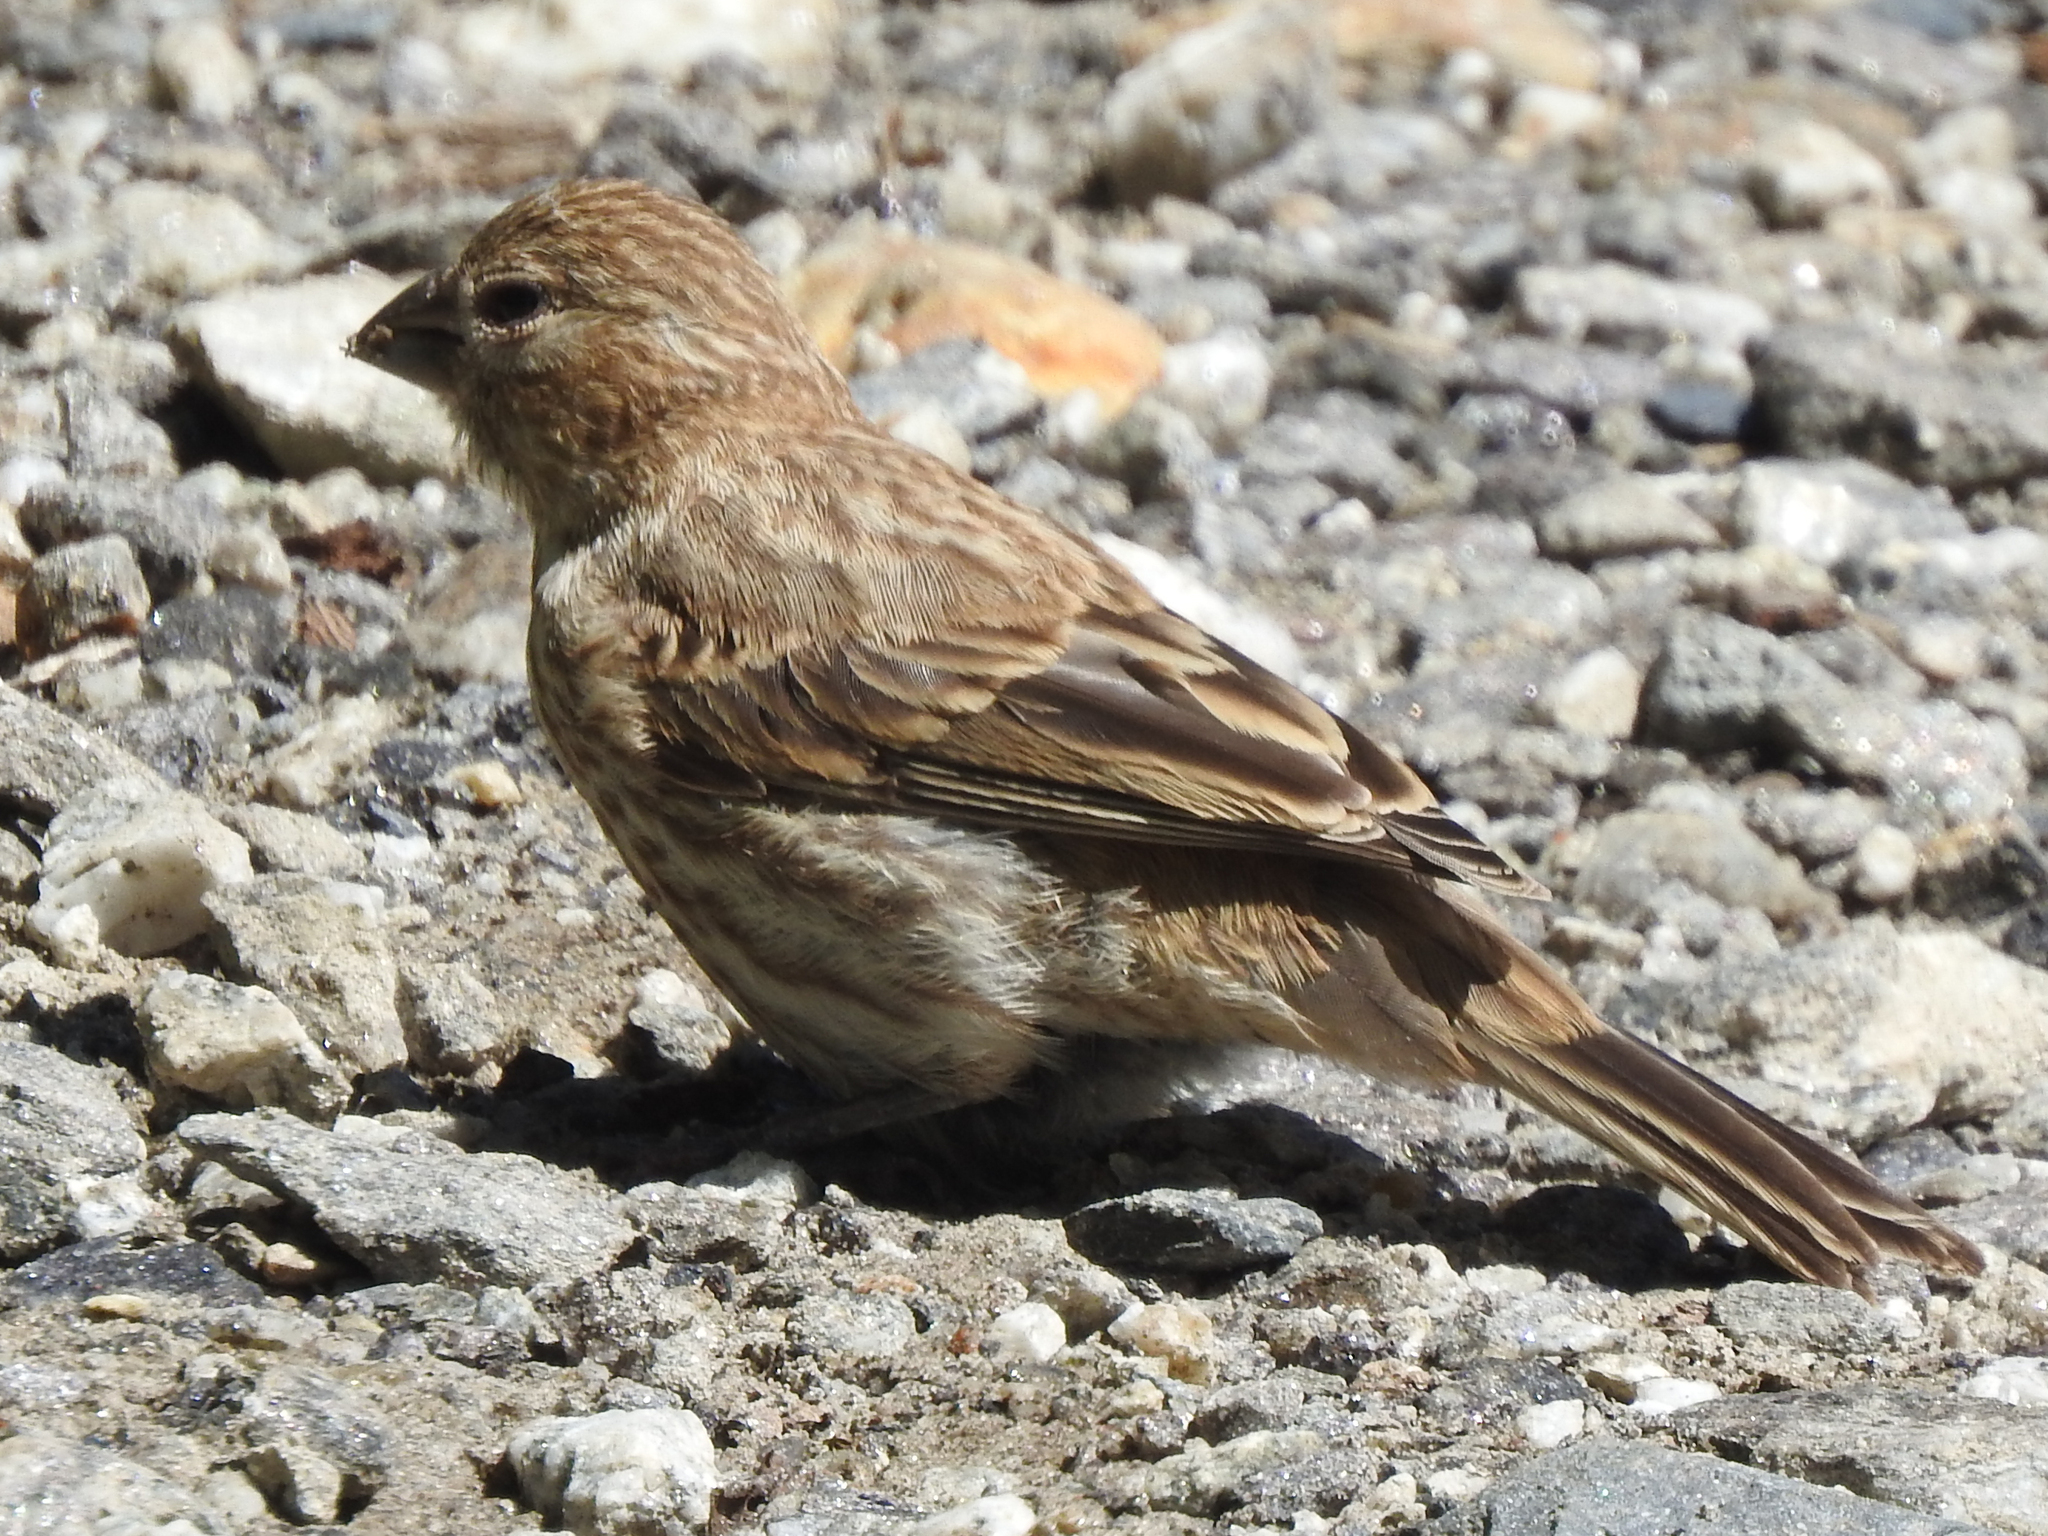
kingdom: Animalia
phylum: Chordata
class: Aves
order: Passeriformes
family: Fringillidae
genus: Haemorhous
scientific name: Haemorhous mexicanus
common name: House finch
